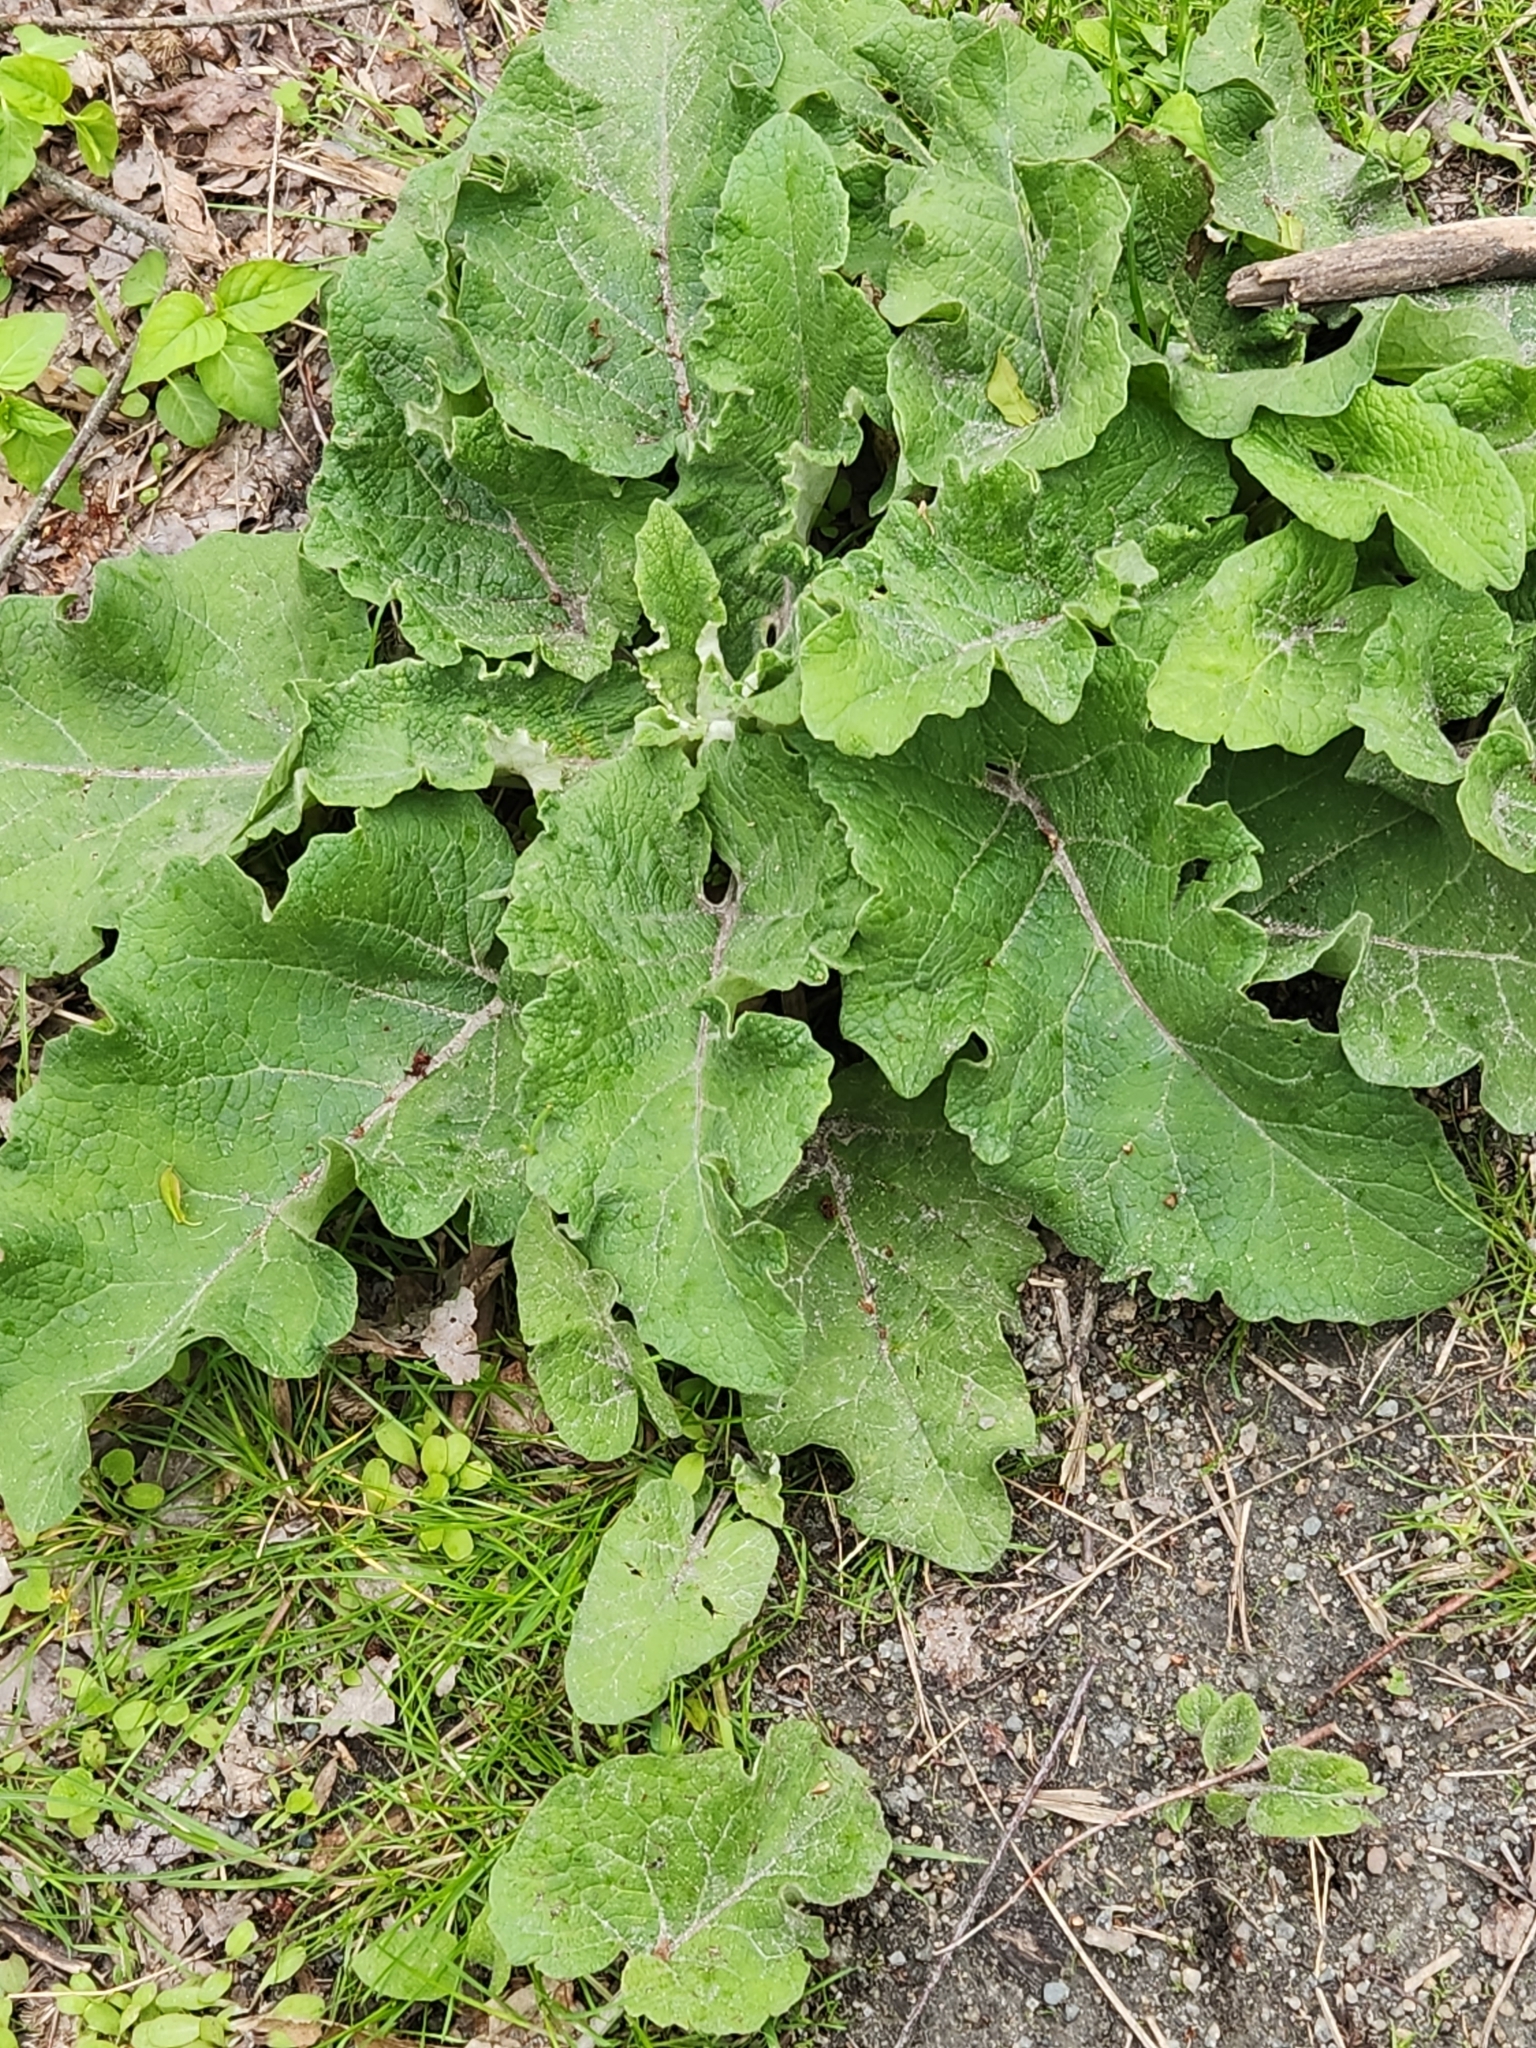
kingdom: Plantae
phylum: Tracheophyta
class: Magnoliopsida
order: Asterales
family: Asteraceae
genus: Arctium
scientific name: Arctium
